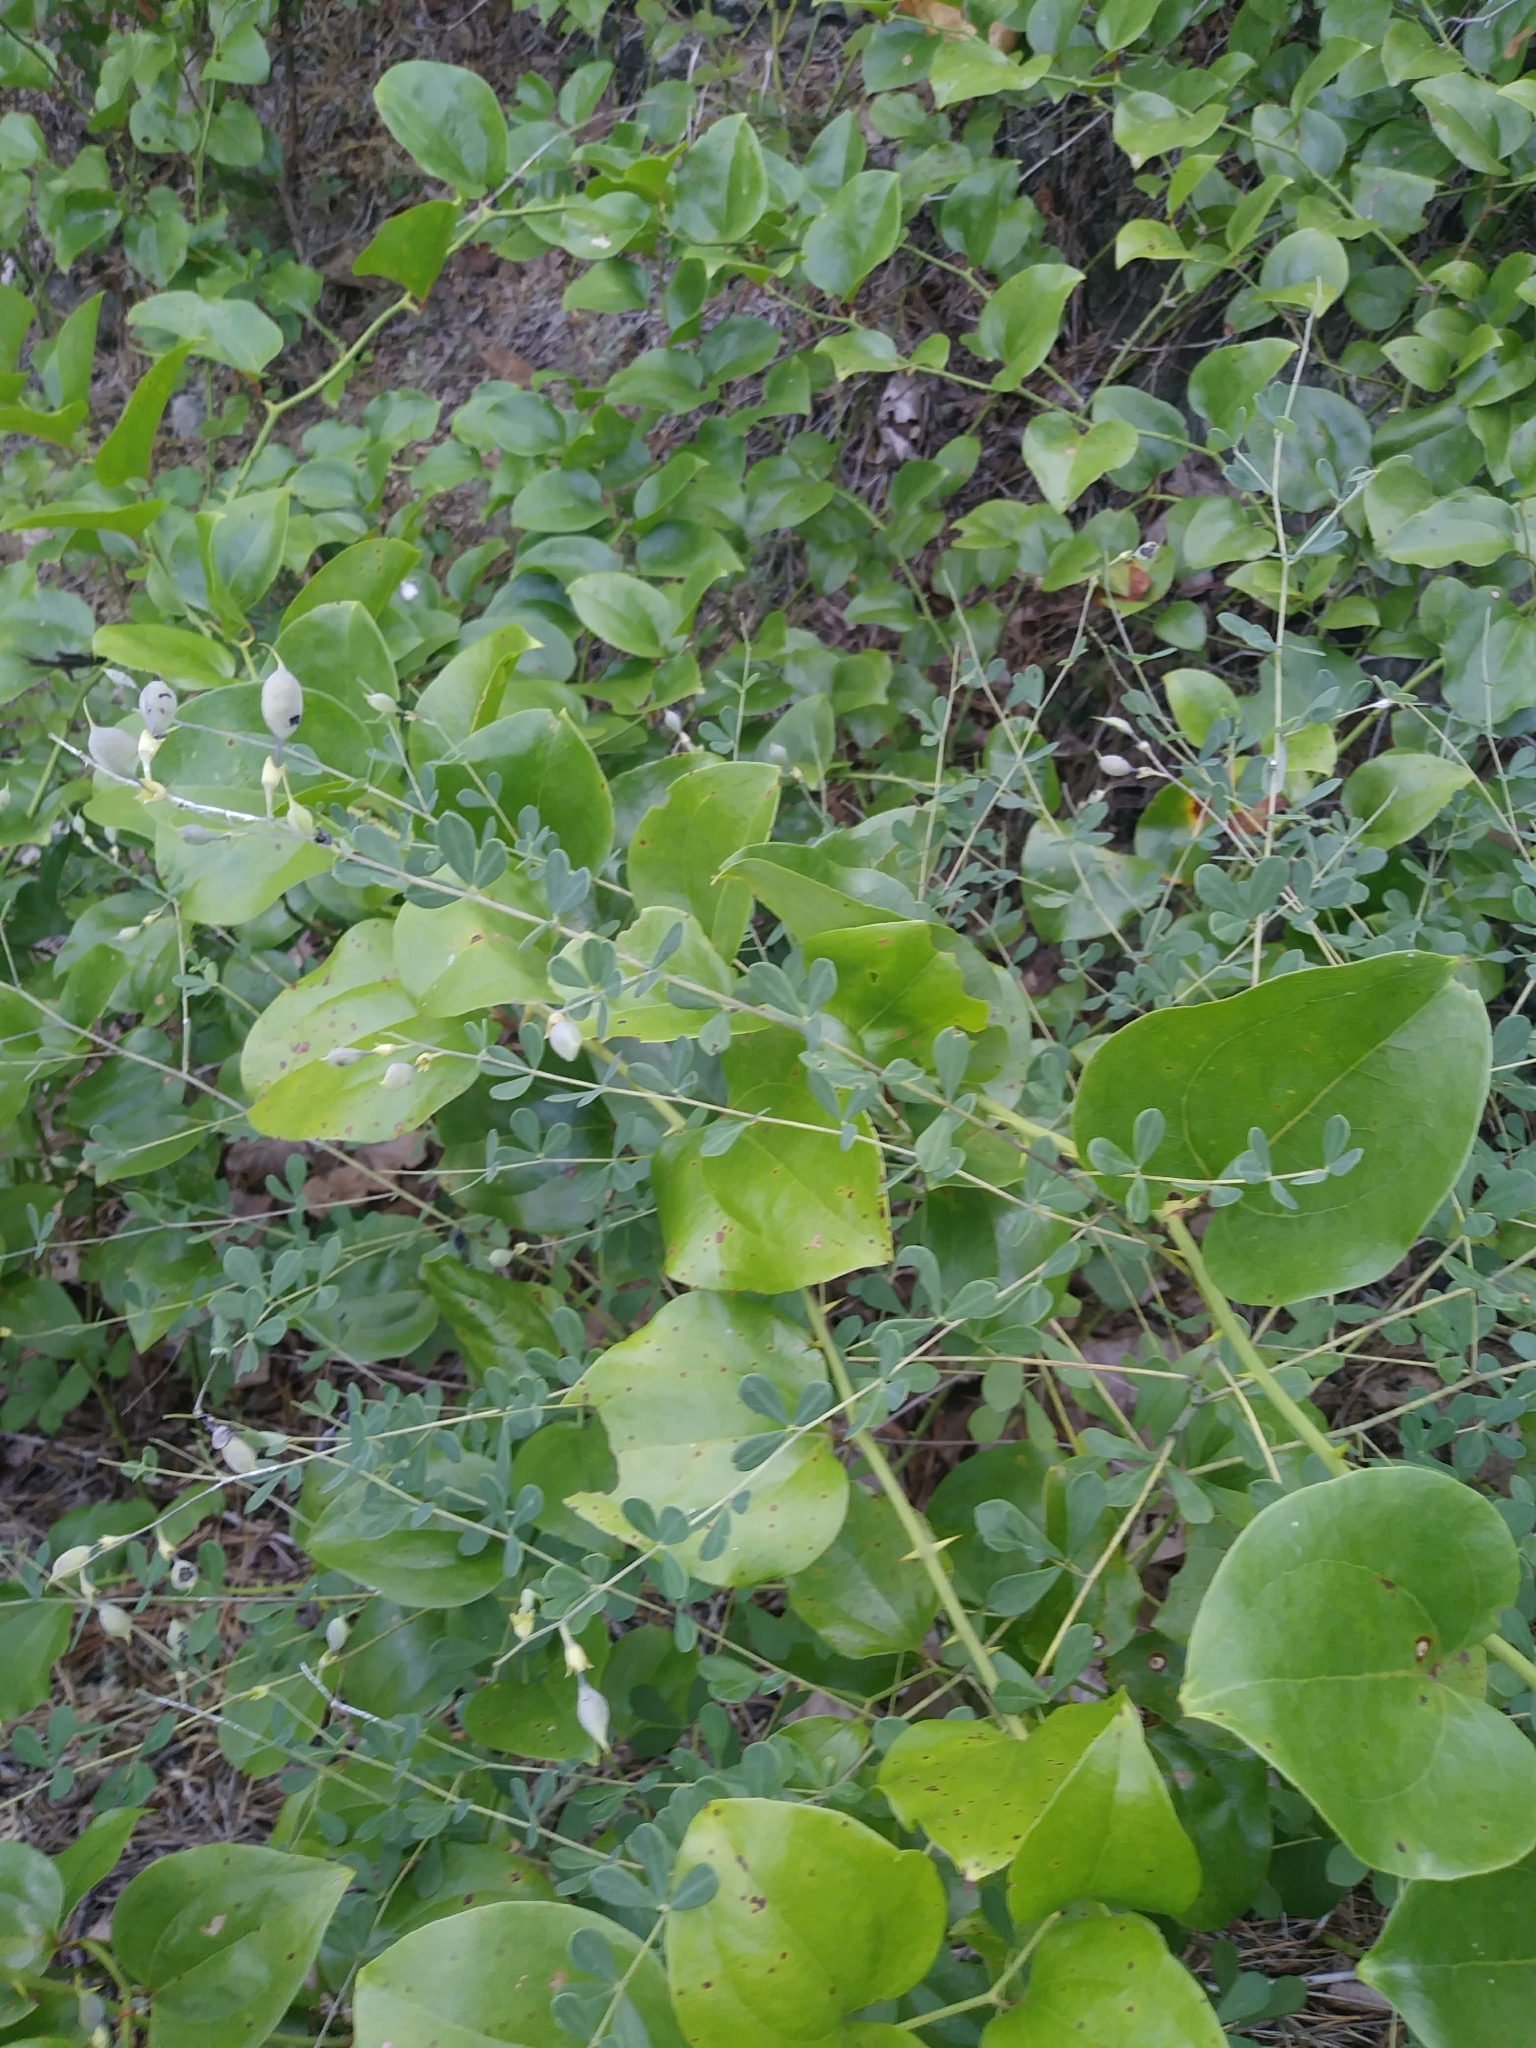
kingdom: Plantae
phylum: Tracheophyta
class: Magnoliopsida
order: Fabales
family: Fabaceae
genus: Baptisia
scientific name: Baptisia tinctoria
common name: Wild indigo
